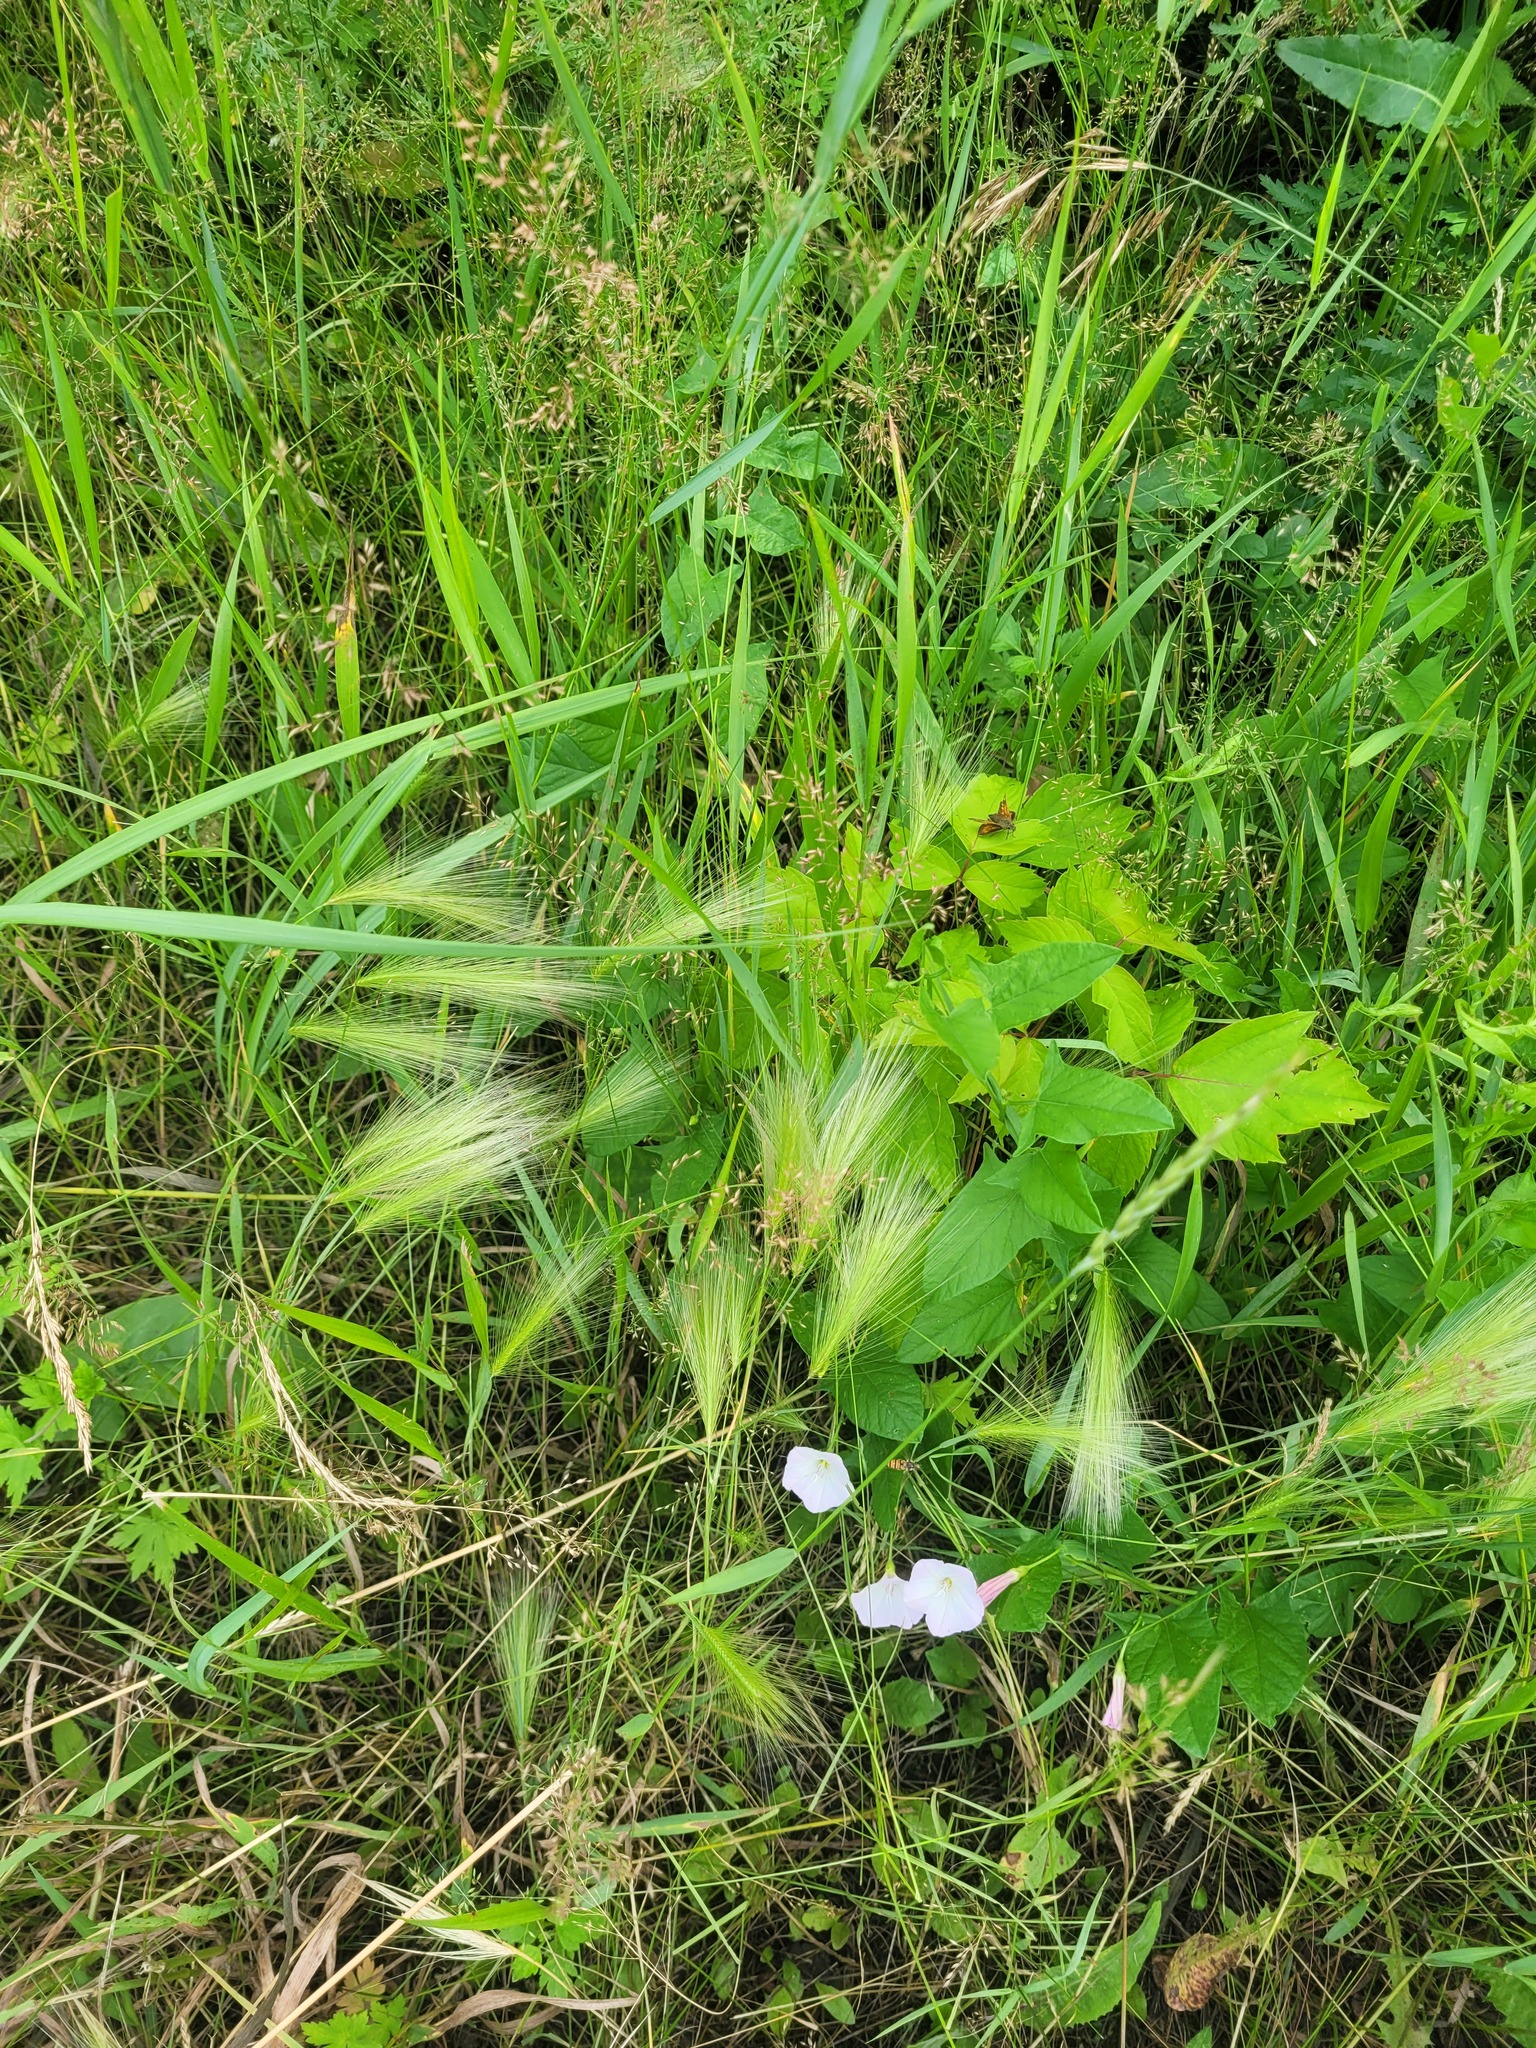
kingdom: Plantae
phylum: Tracheophyta
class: Liliopsida
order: Poales
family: Poaceae
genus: Hordeum
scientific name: Hordeum jubatum
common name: Foxtail barley
